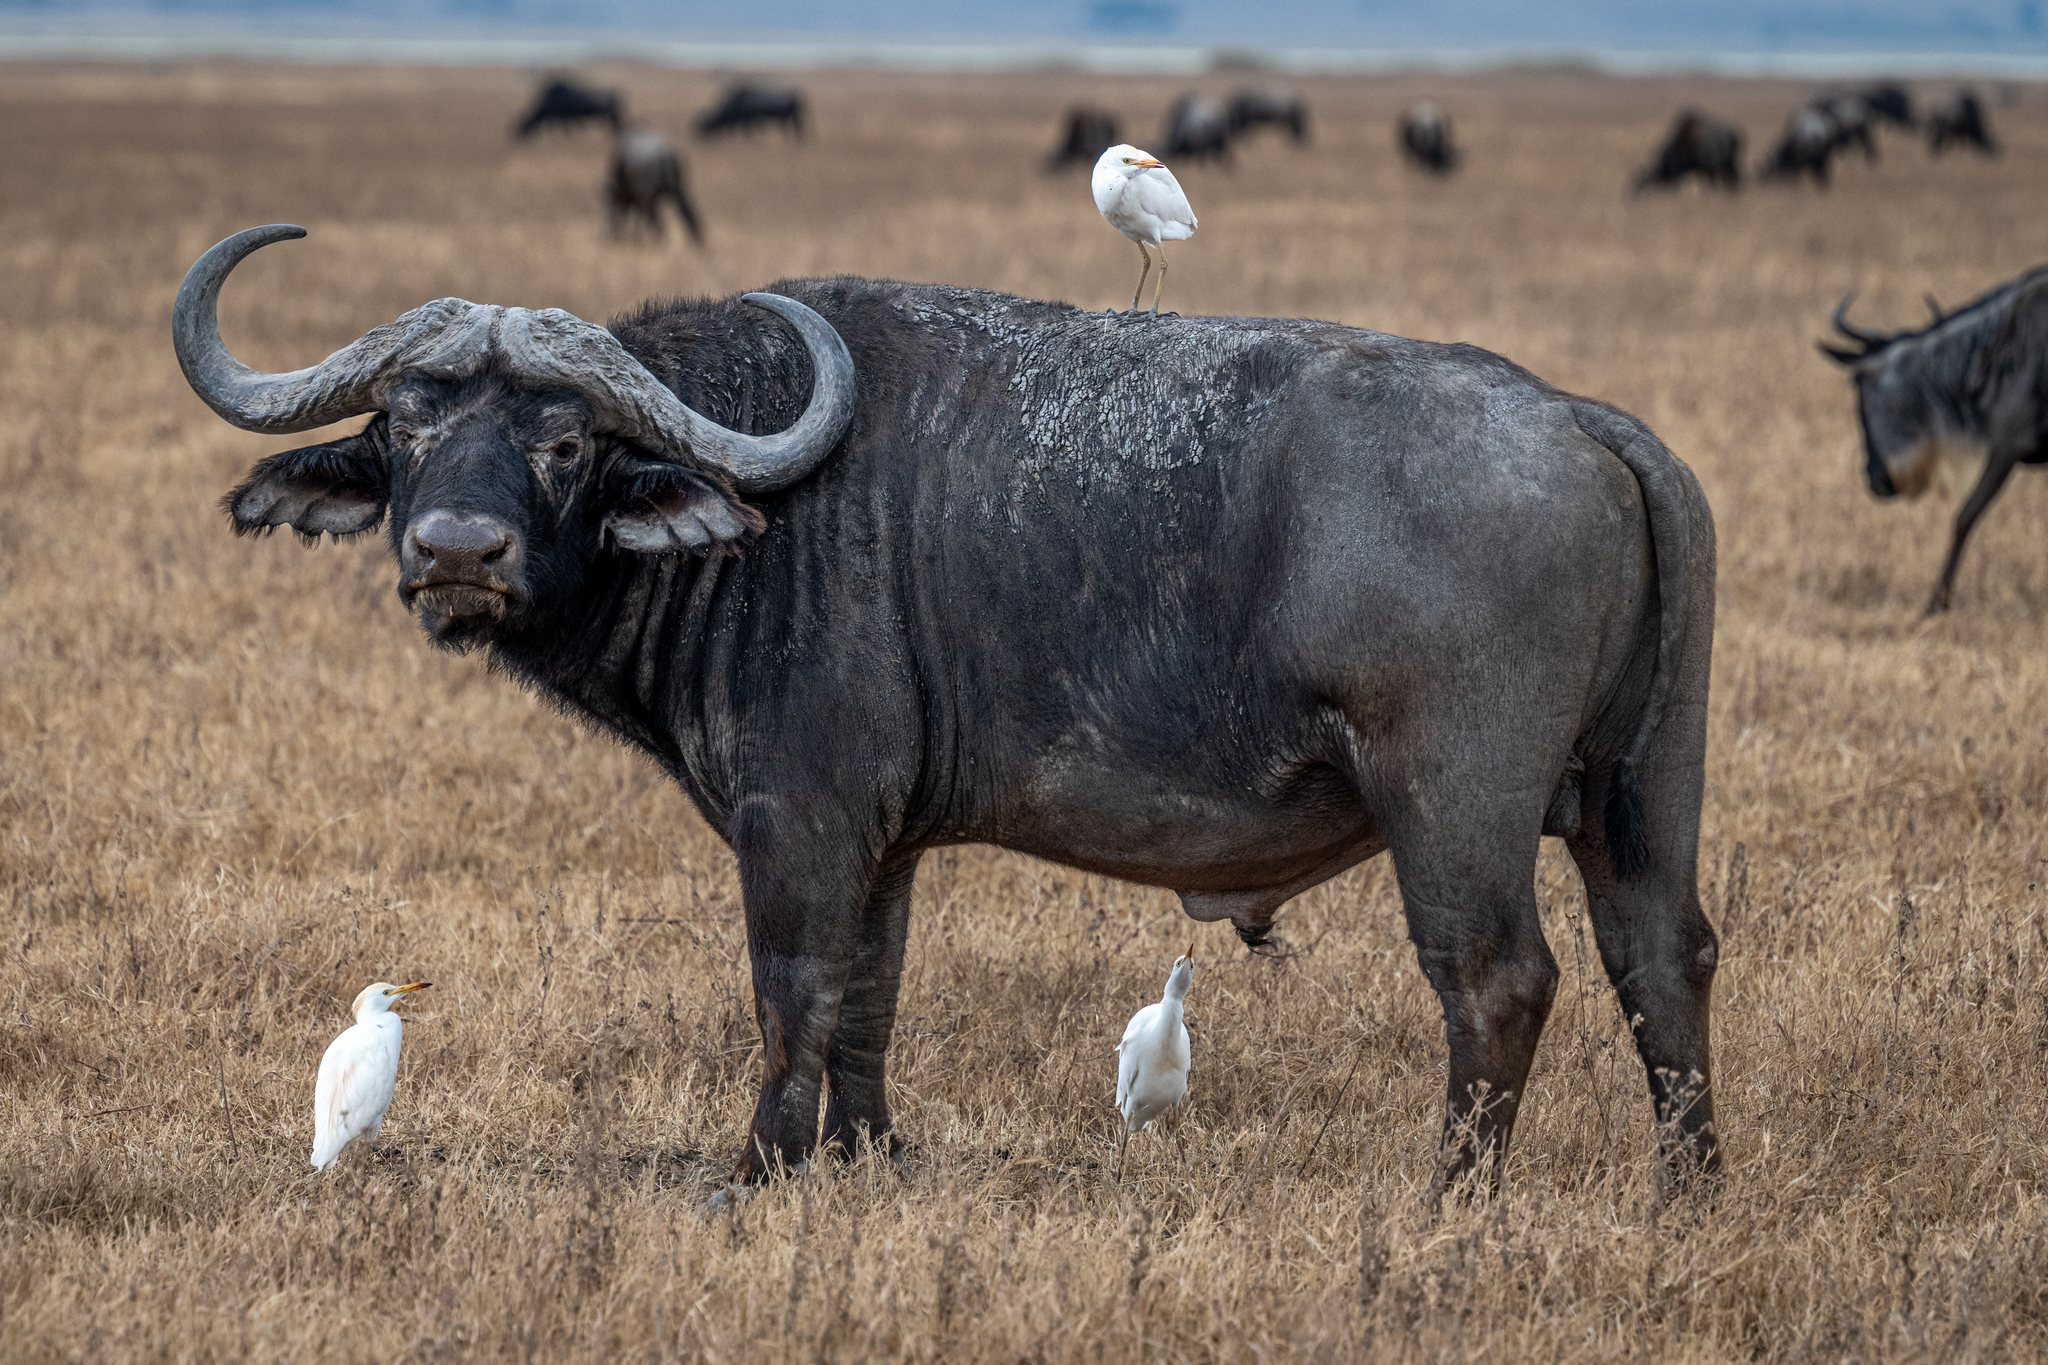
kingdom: Animalia
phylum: Chordata
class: Mammalia
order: Artiodactyla
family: Bovidae
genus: Syncerus
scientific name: Syncerus caffer
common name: African buffalo
